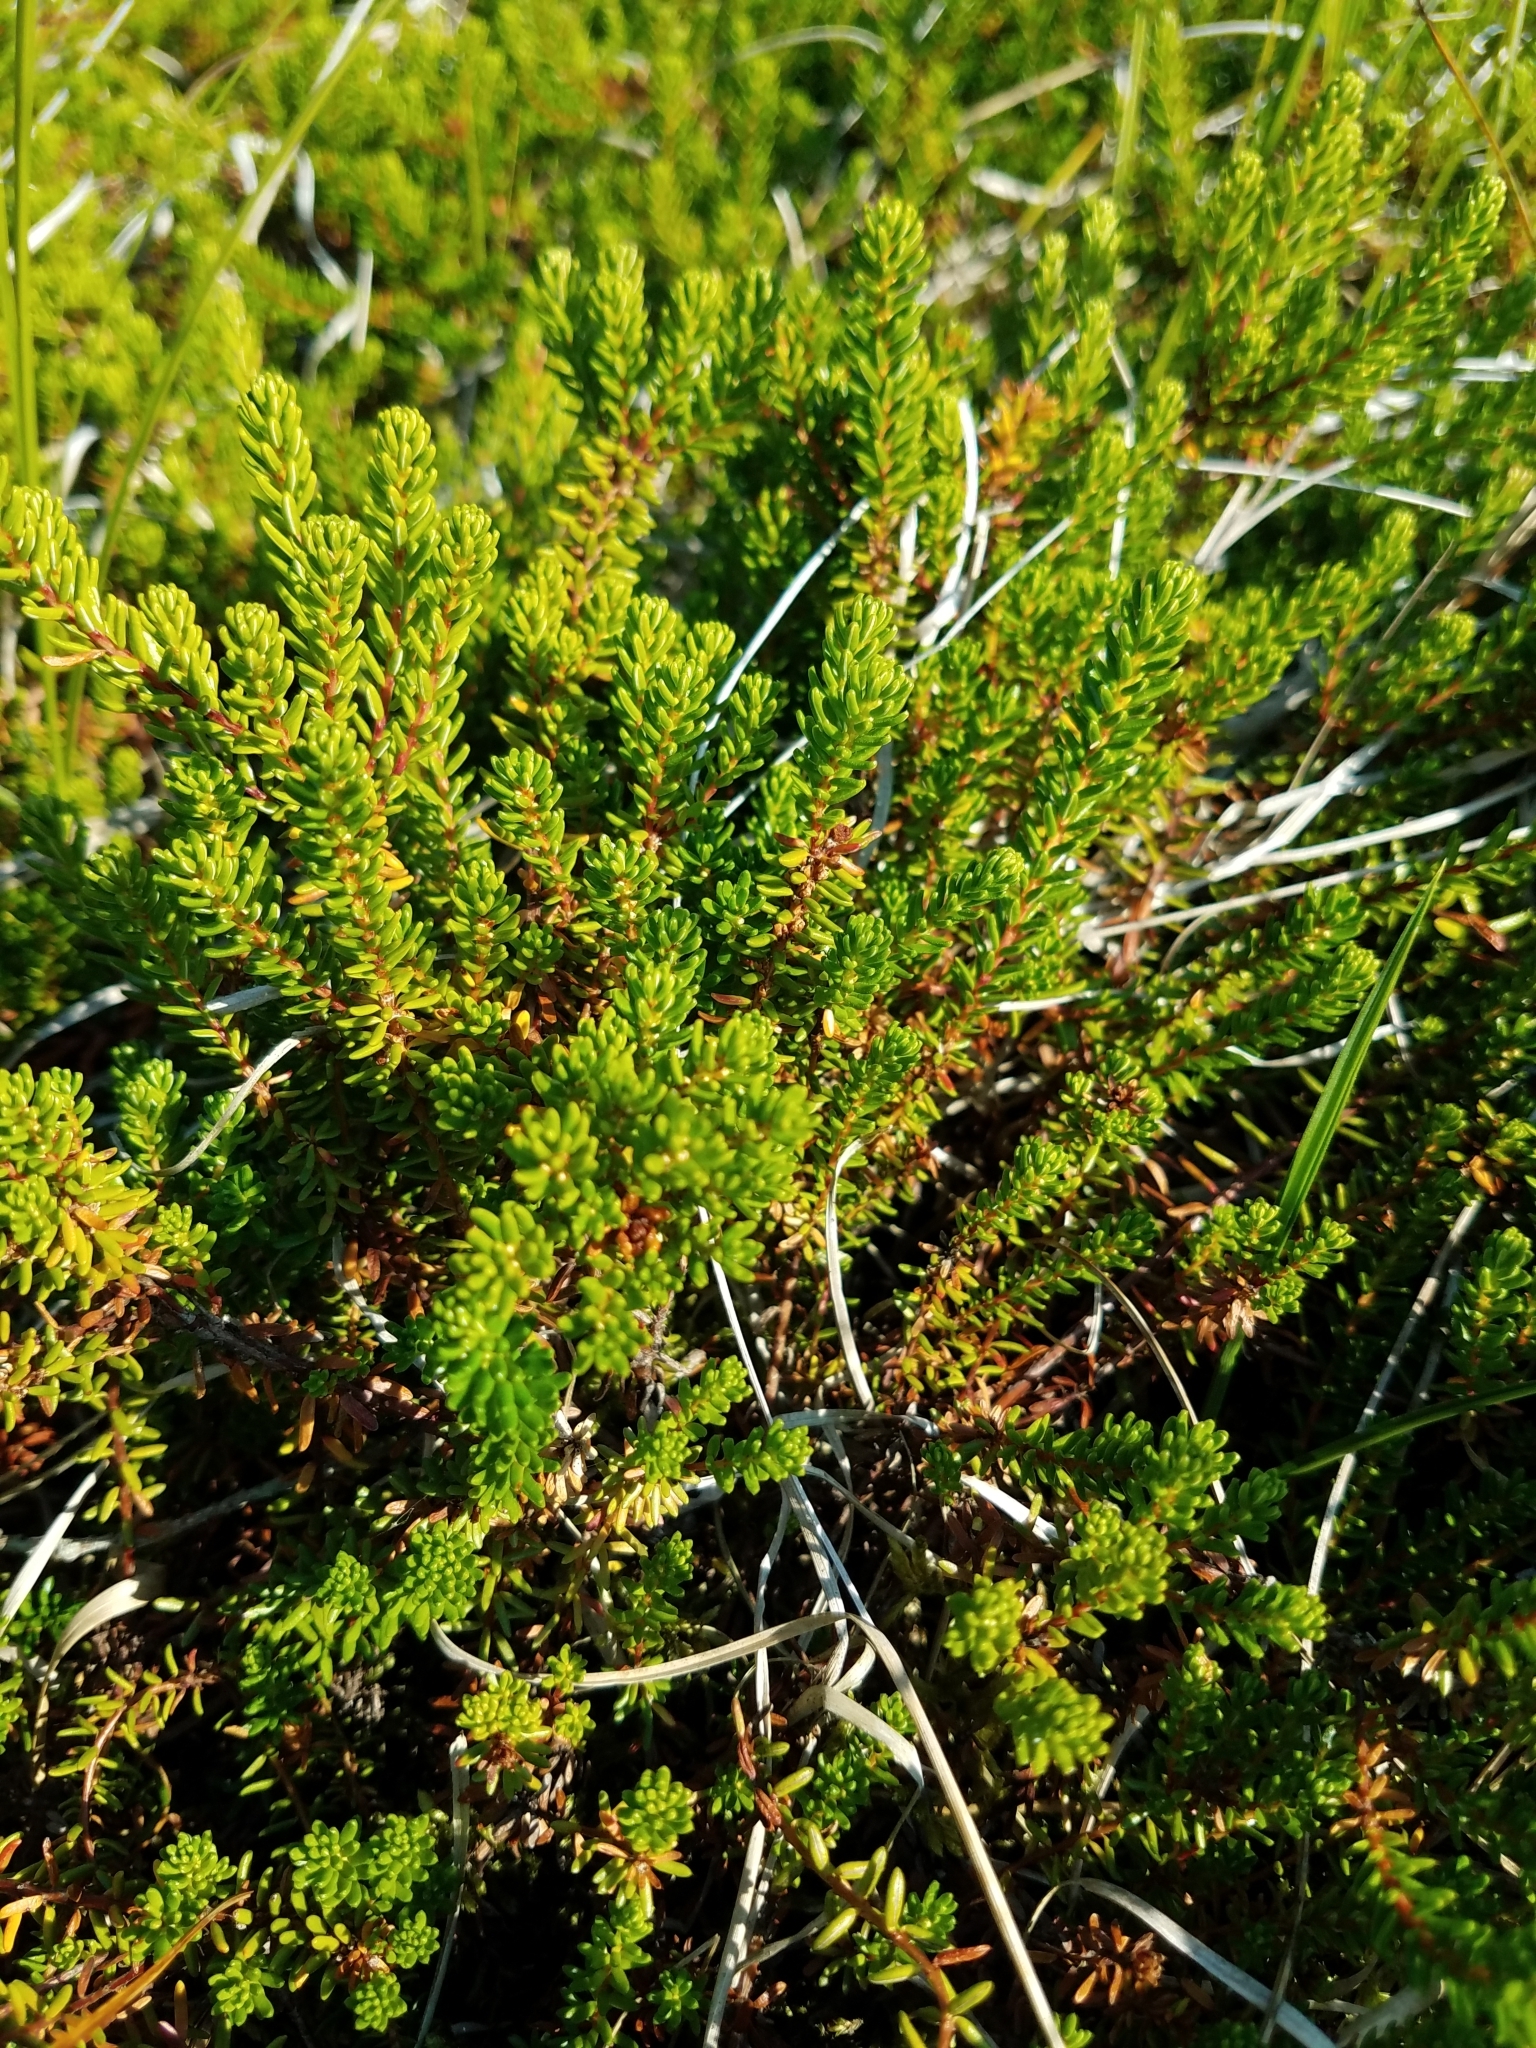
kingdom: Plantae
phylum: Tracheophyta
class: Magnoliopsida
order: Ericales
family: Ericaceae
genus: Empetrum
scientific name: Empetrum nigrum
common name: Black crowberry
